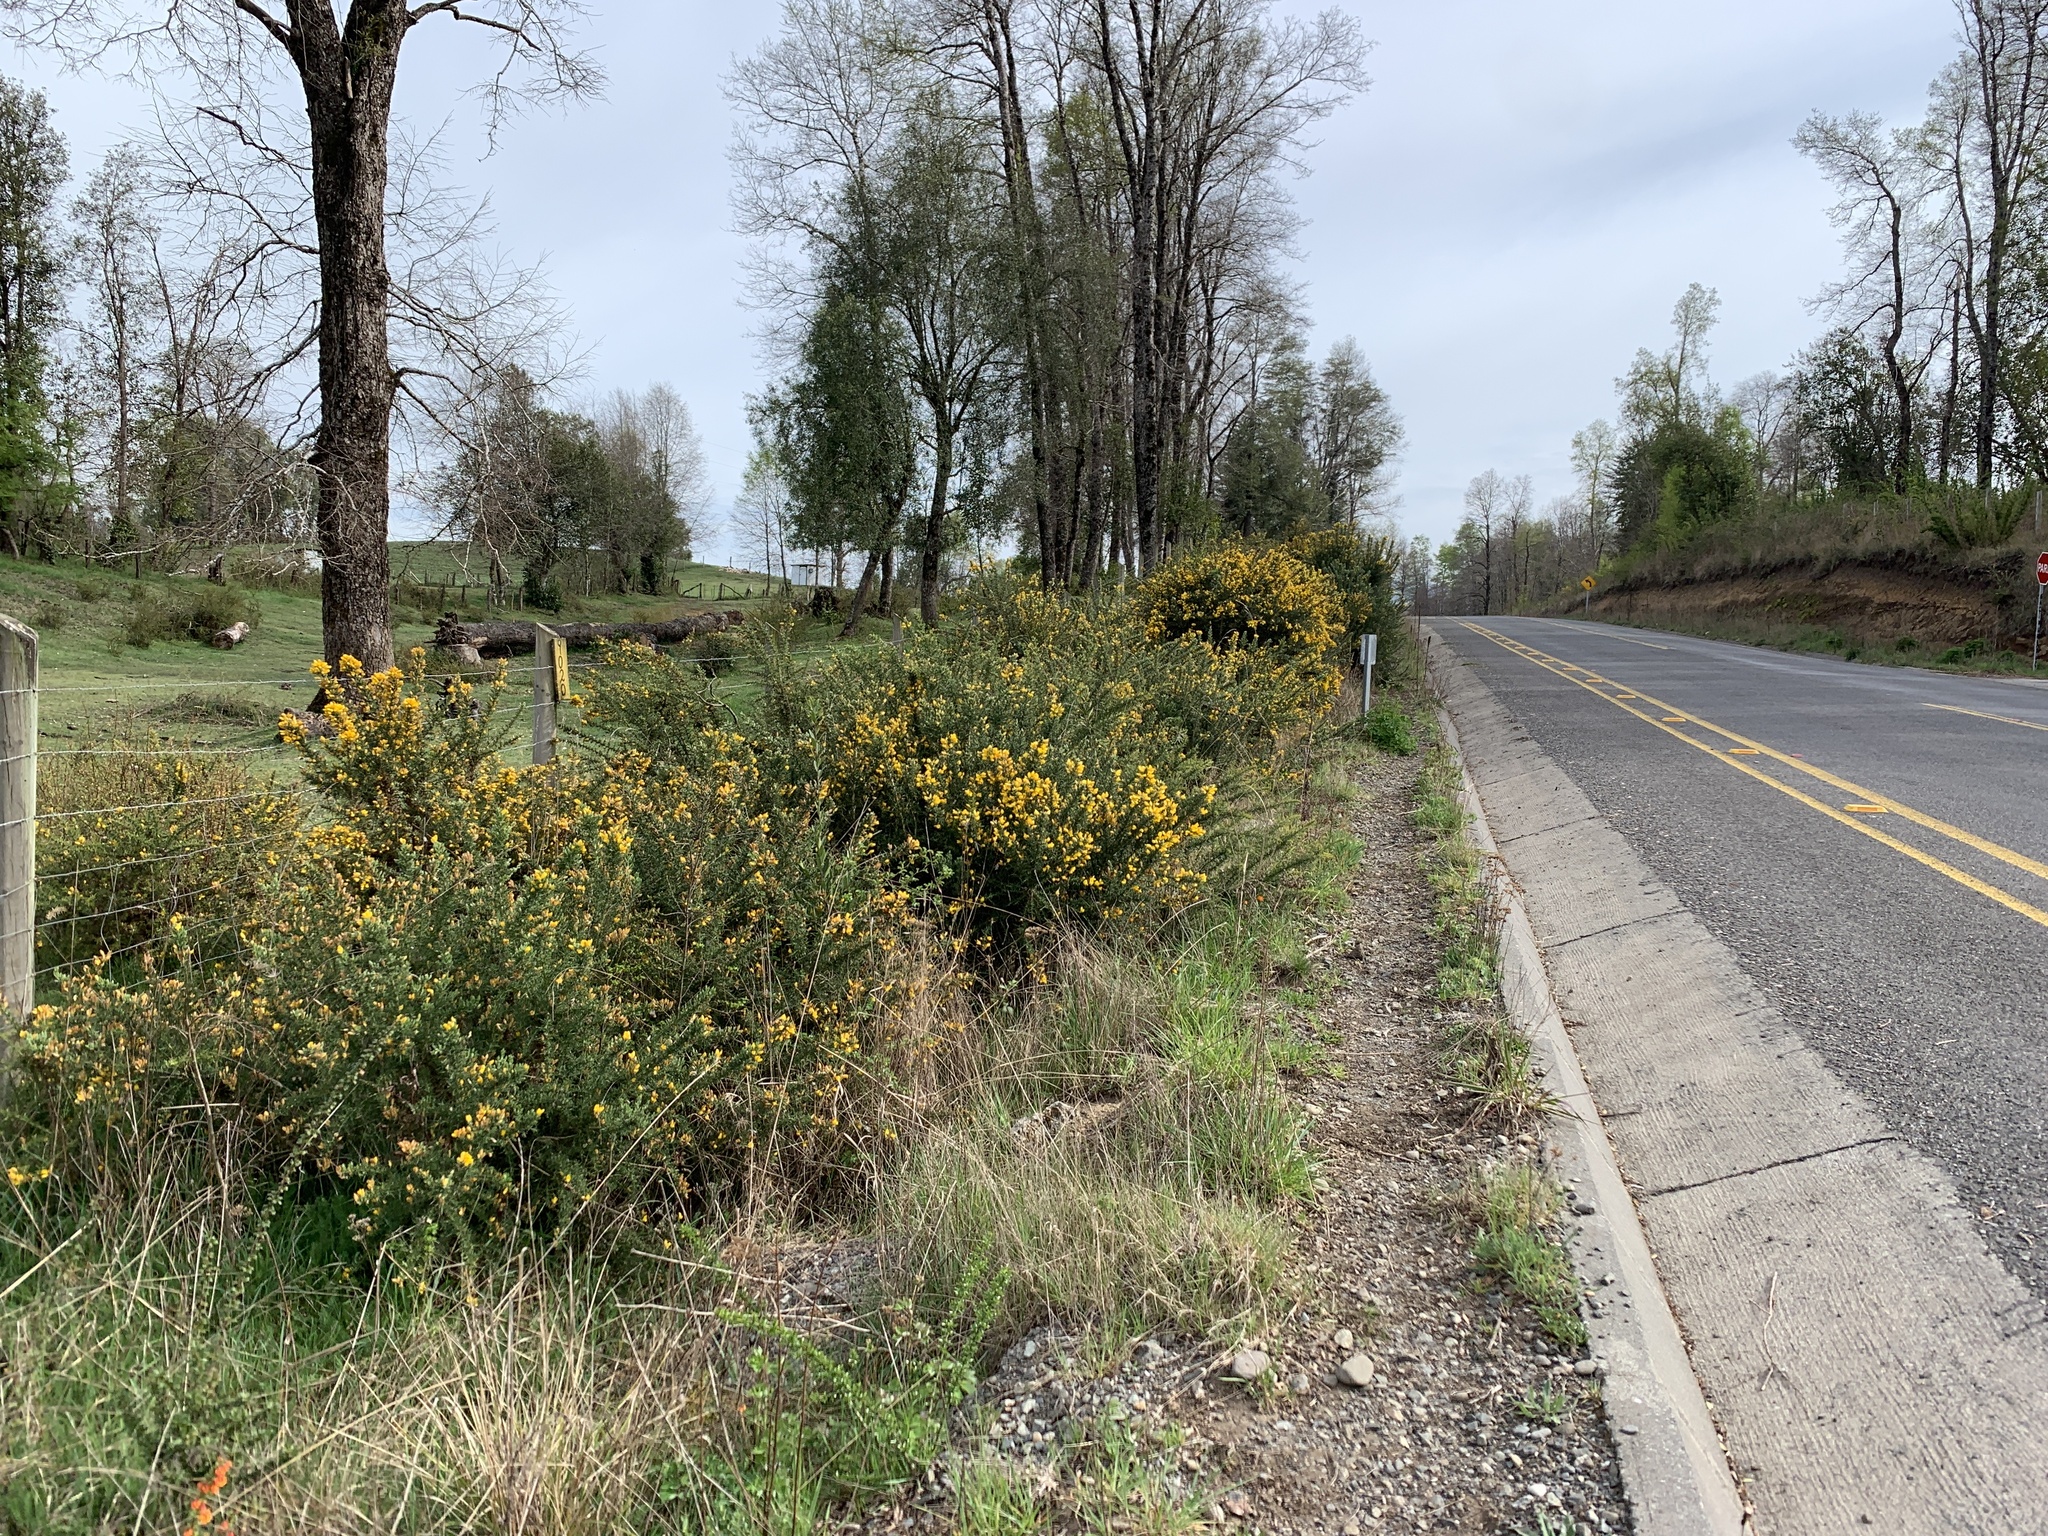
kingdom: Plantae
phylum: Tracheophyta
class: Magnoliopsida
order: Fabales
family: Fabaceae
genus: Ulex
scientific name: Ulex europaeus
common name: Common gorse
